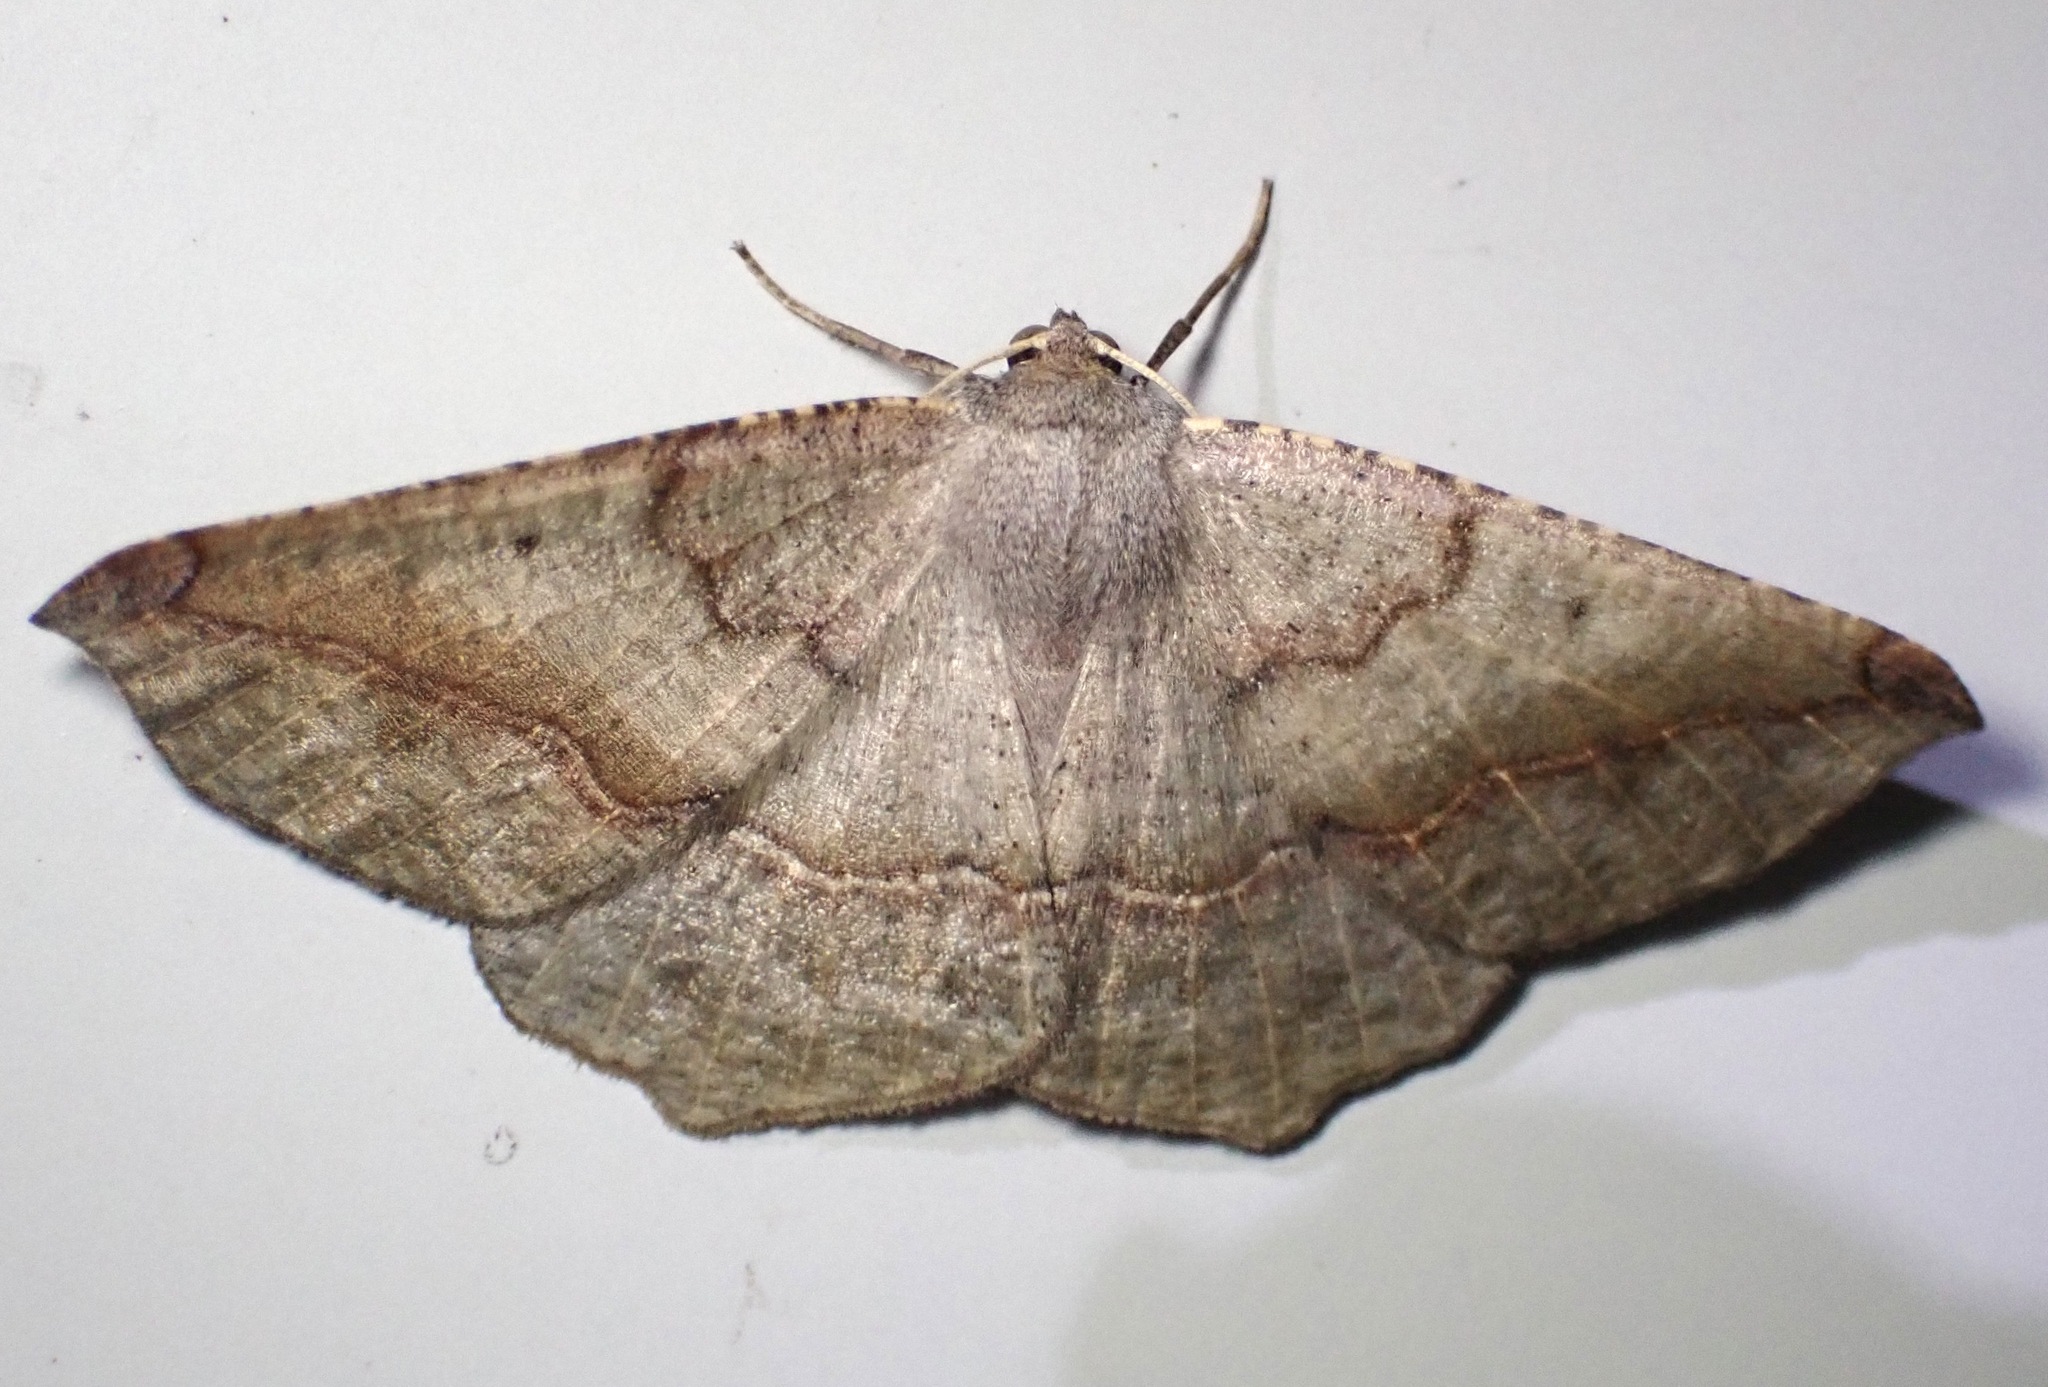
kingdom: Animalia
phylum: Arthropoda
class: Insecta
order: Lepidoptera
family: Geometridae
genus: Prochoerodes
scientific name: Prochoerodes forficaria
